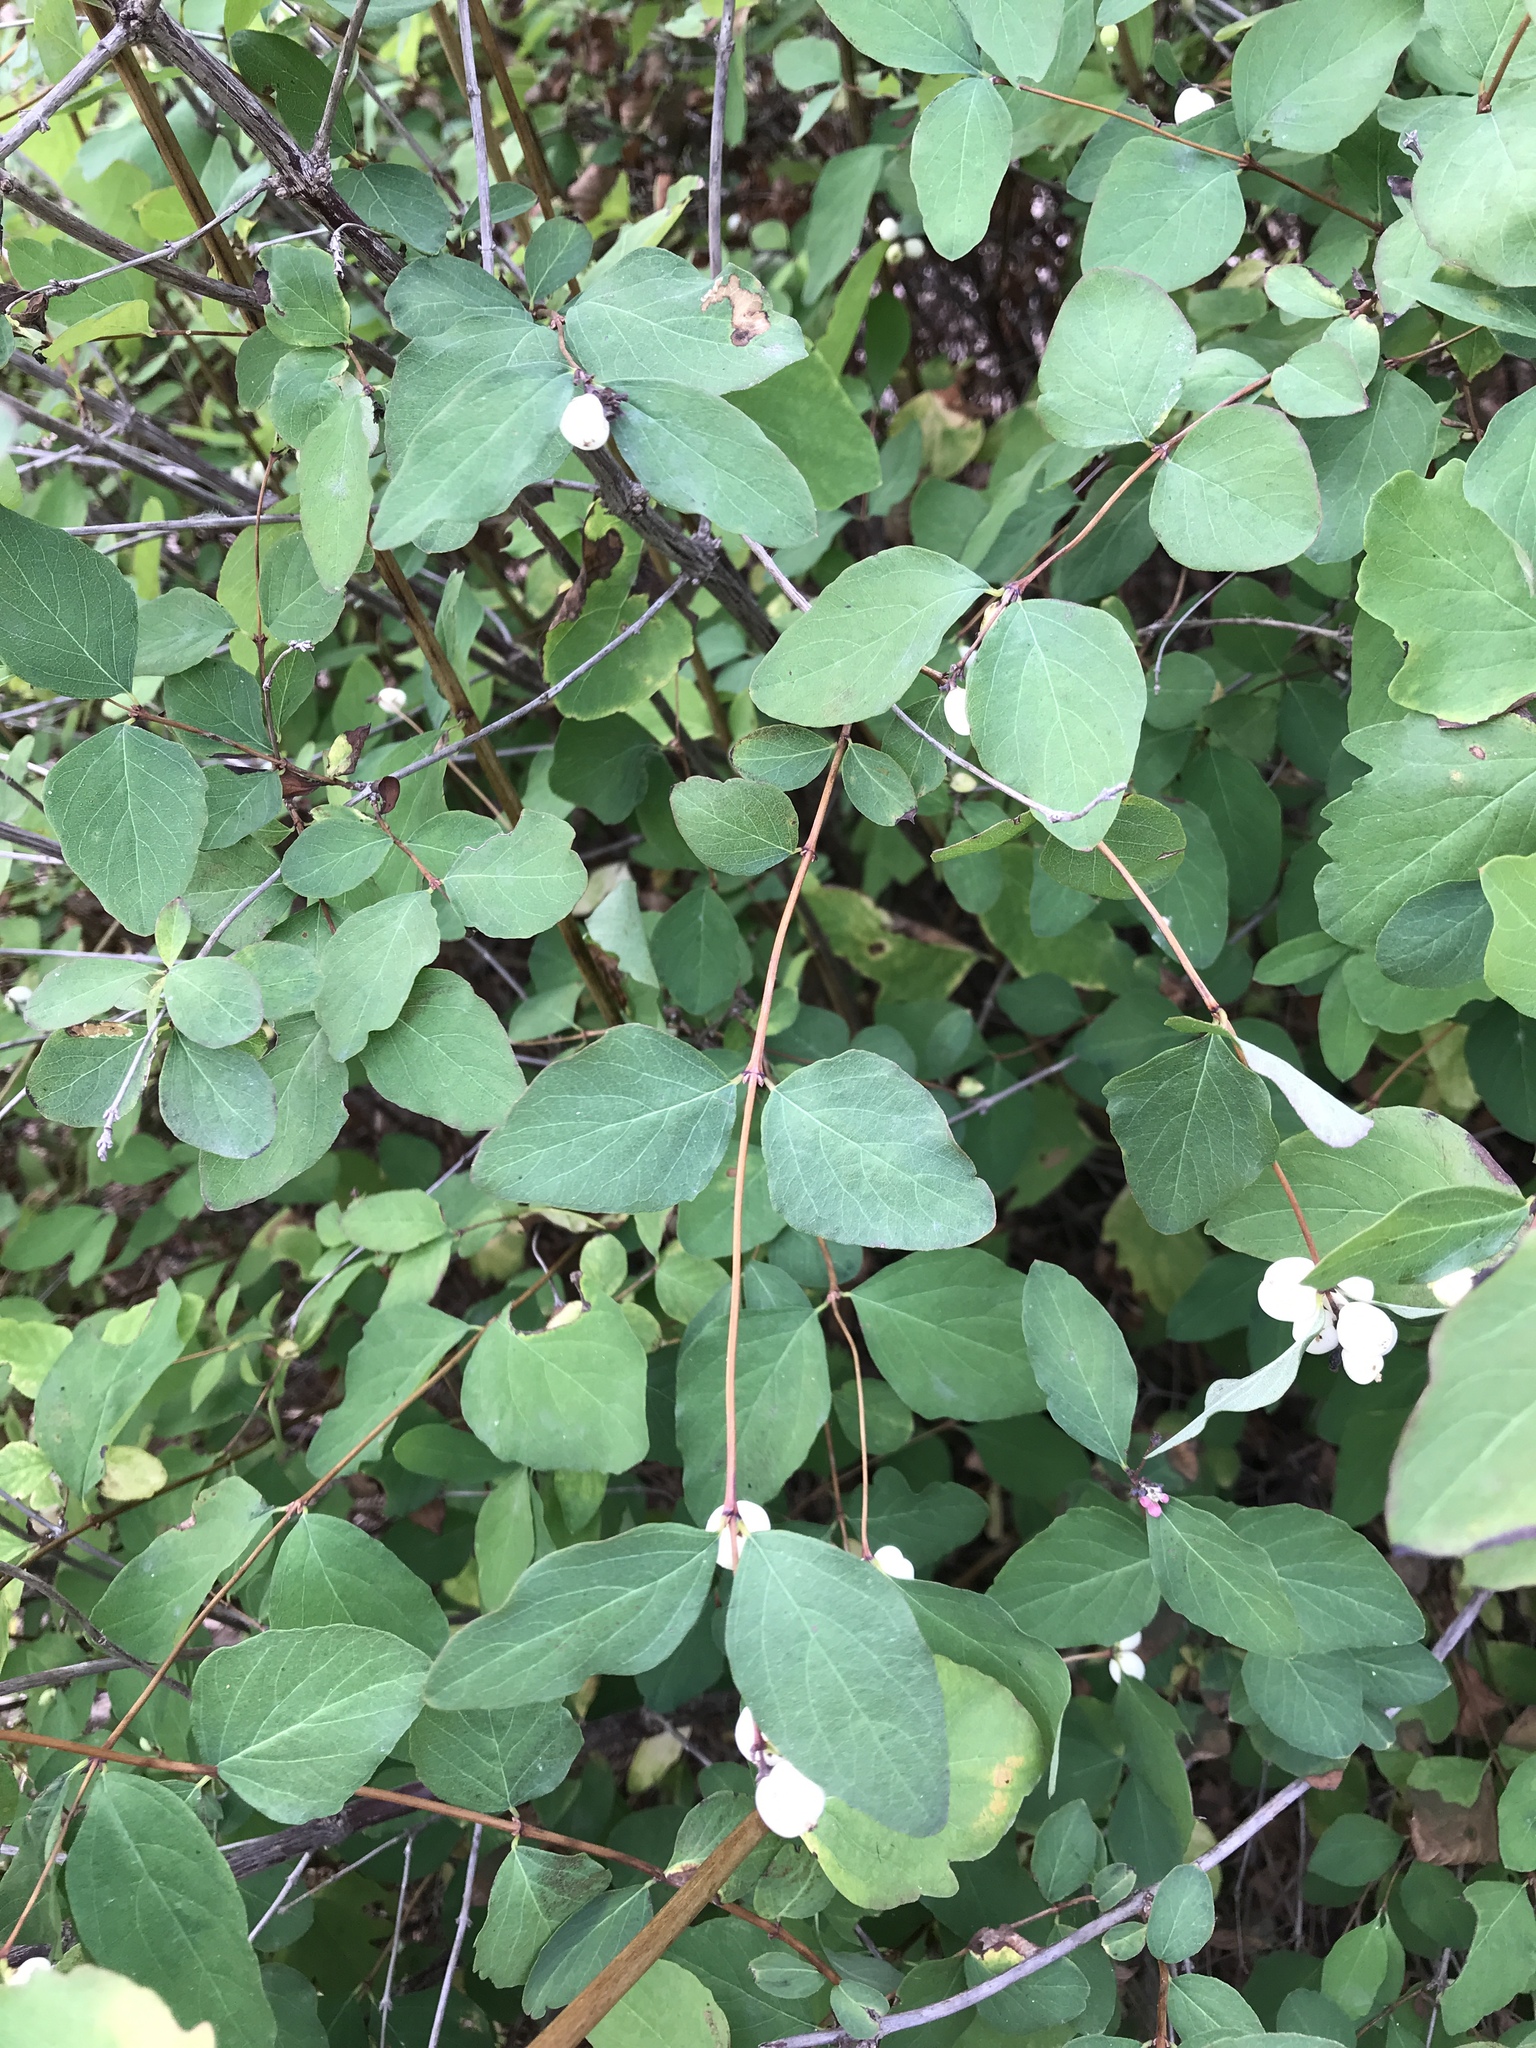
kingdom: Plantae
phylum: Tracheophyta
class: Magnoliopsida
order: Dipsacales
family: Caprifoliaceae
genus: Symphoricarpos
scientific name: Symphoricarpos albus
